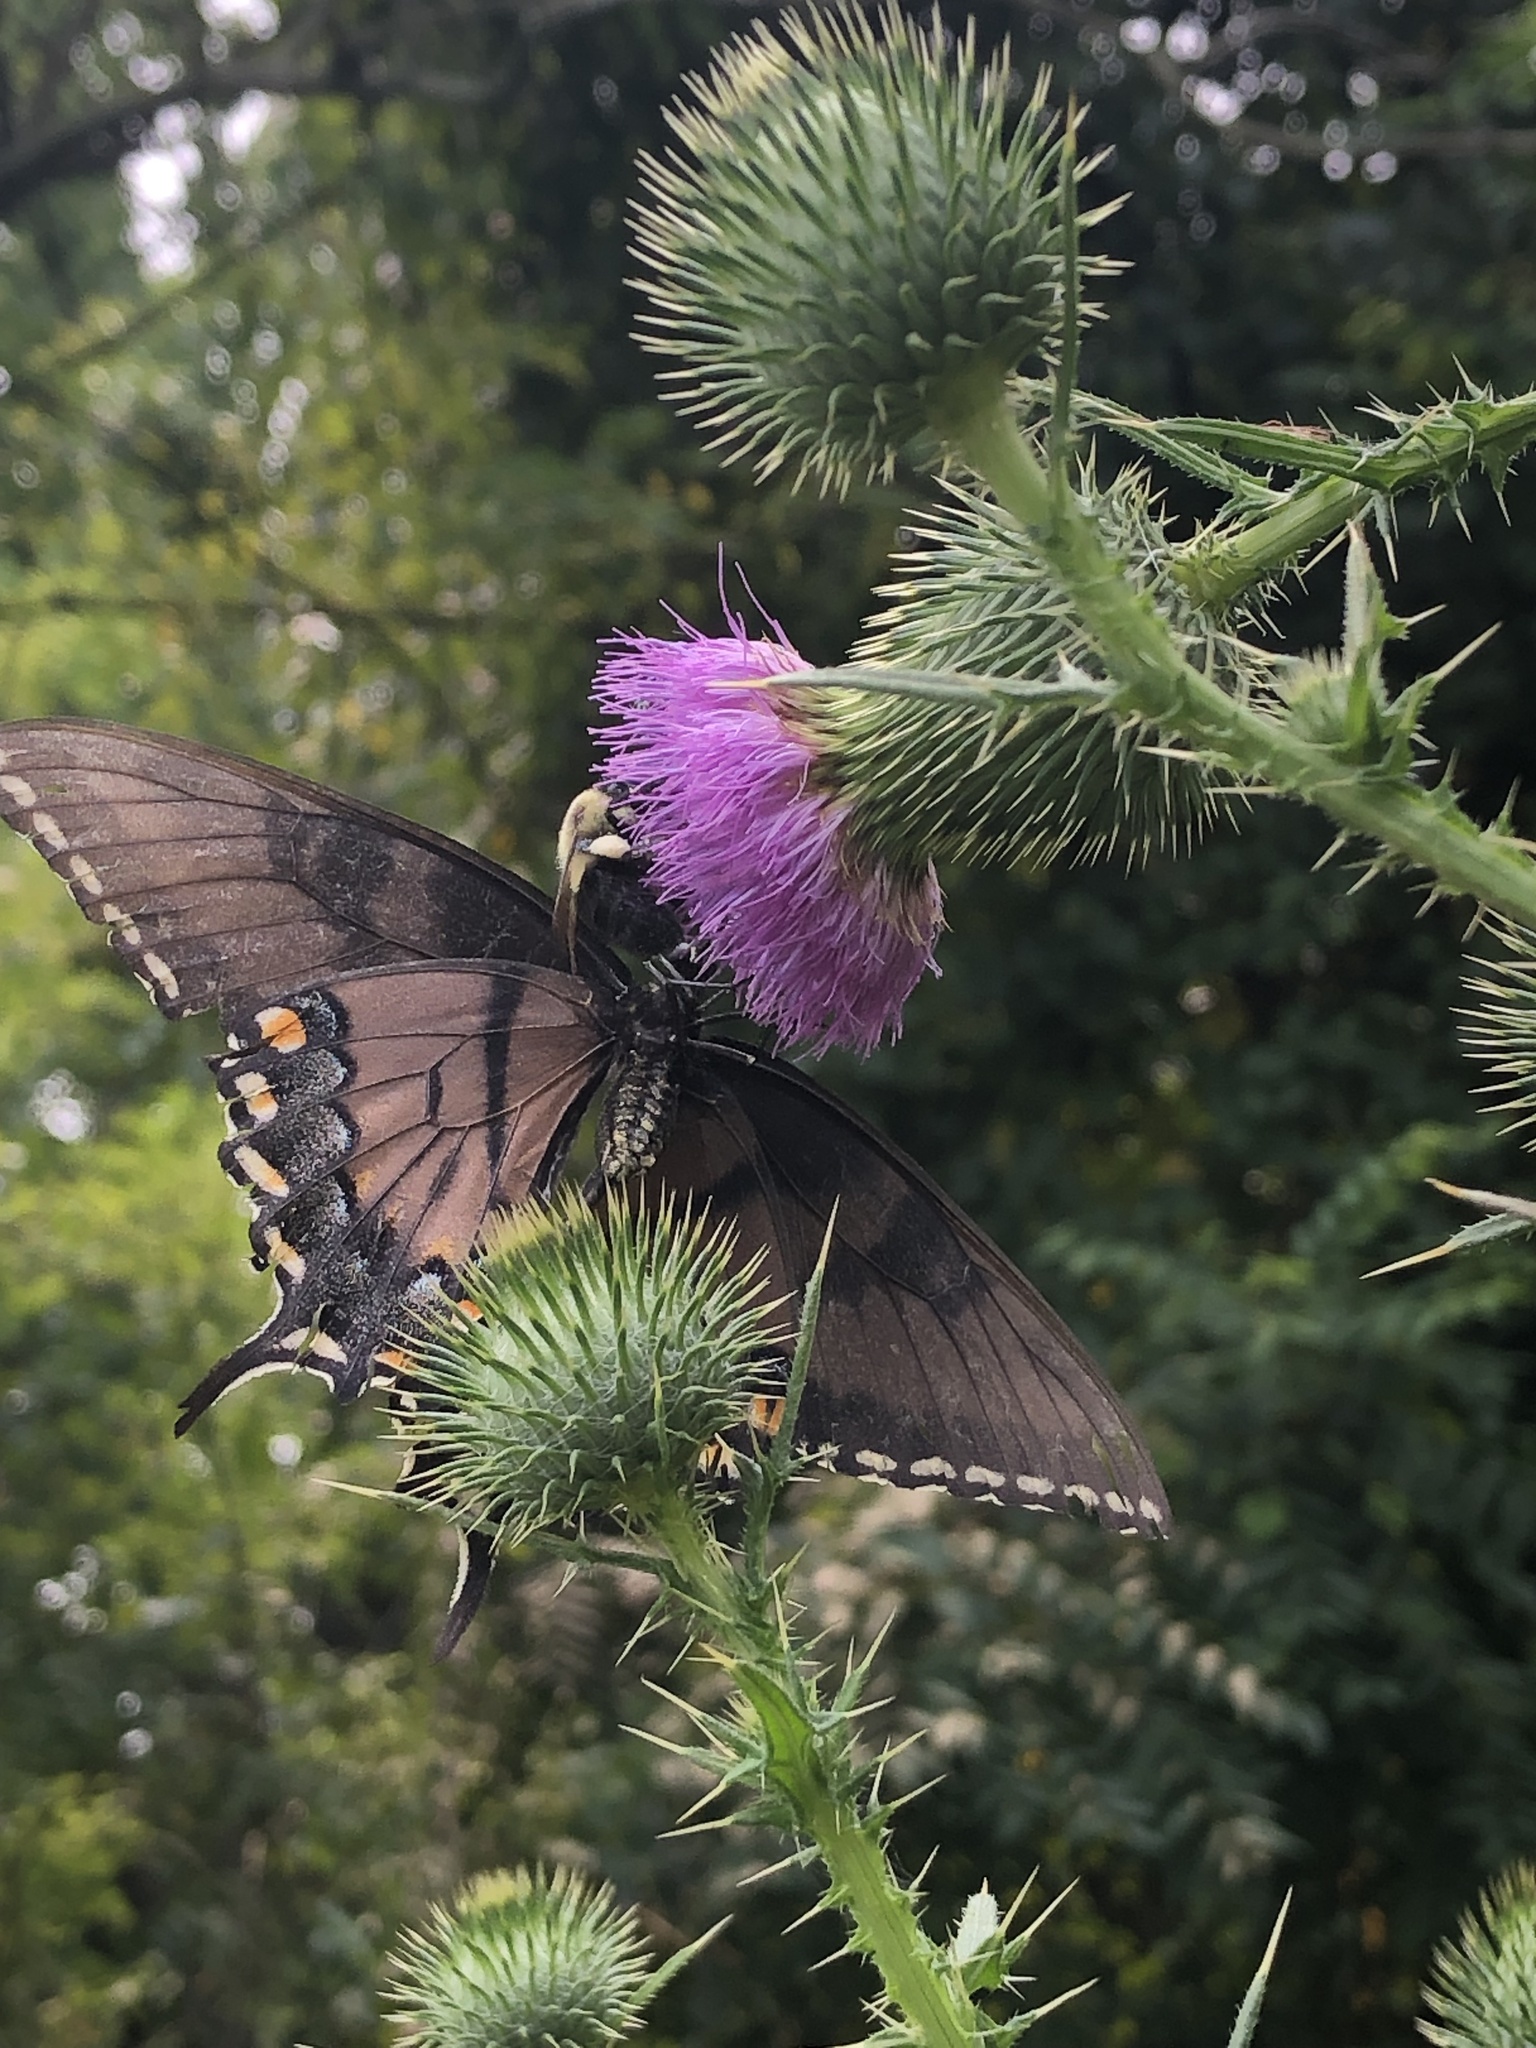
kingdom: Animalia
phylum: Arthropoda
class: Insecta
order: Lepidoptera
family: Papilionidae
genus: Papilio
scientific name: Papilio glaucus
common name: Tiger swallowtail
